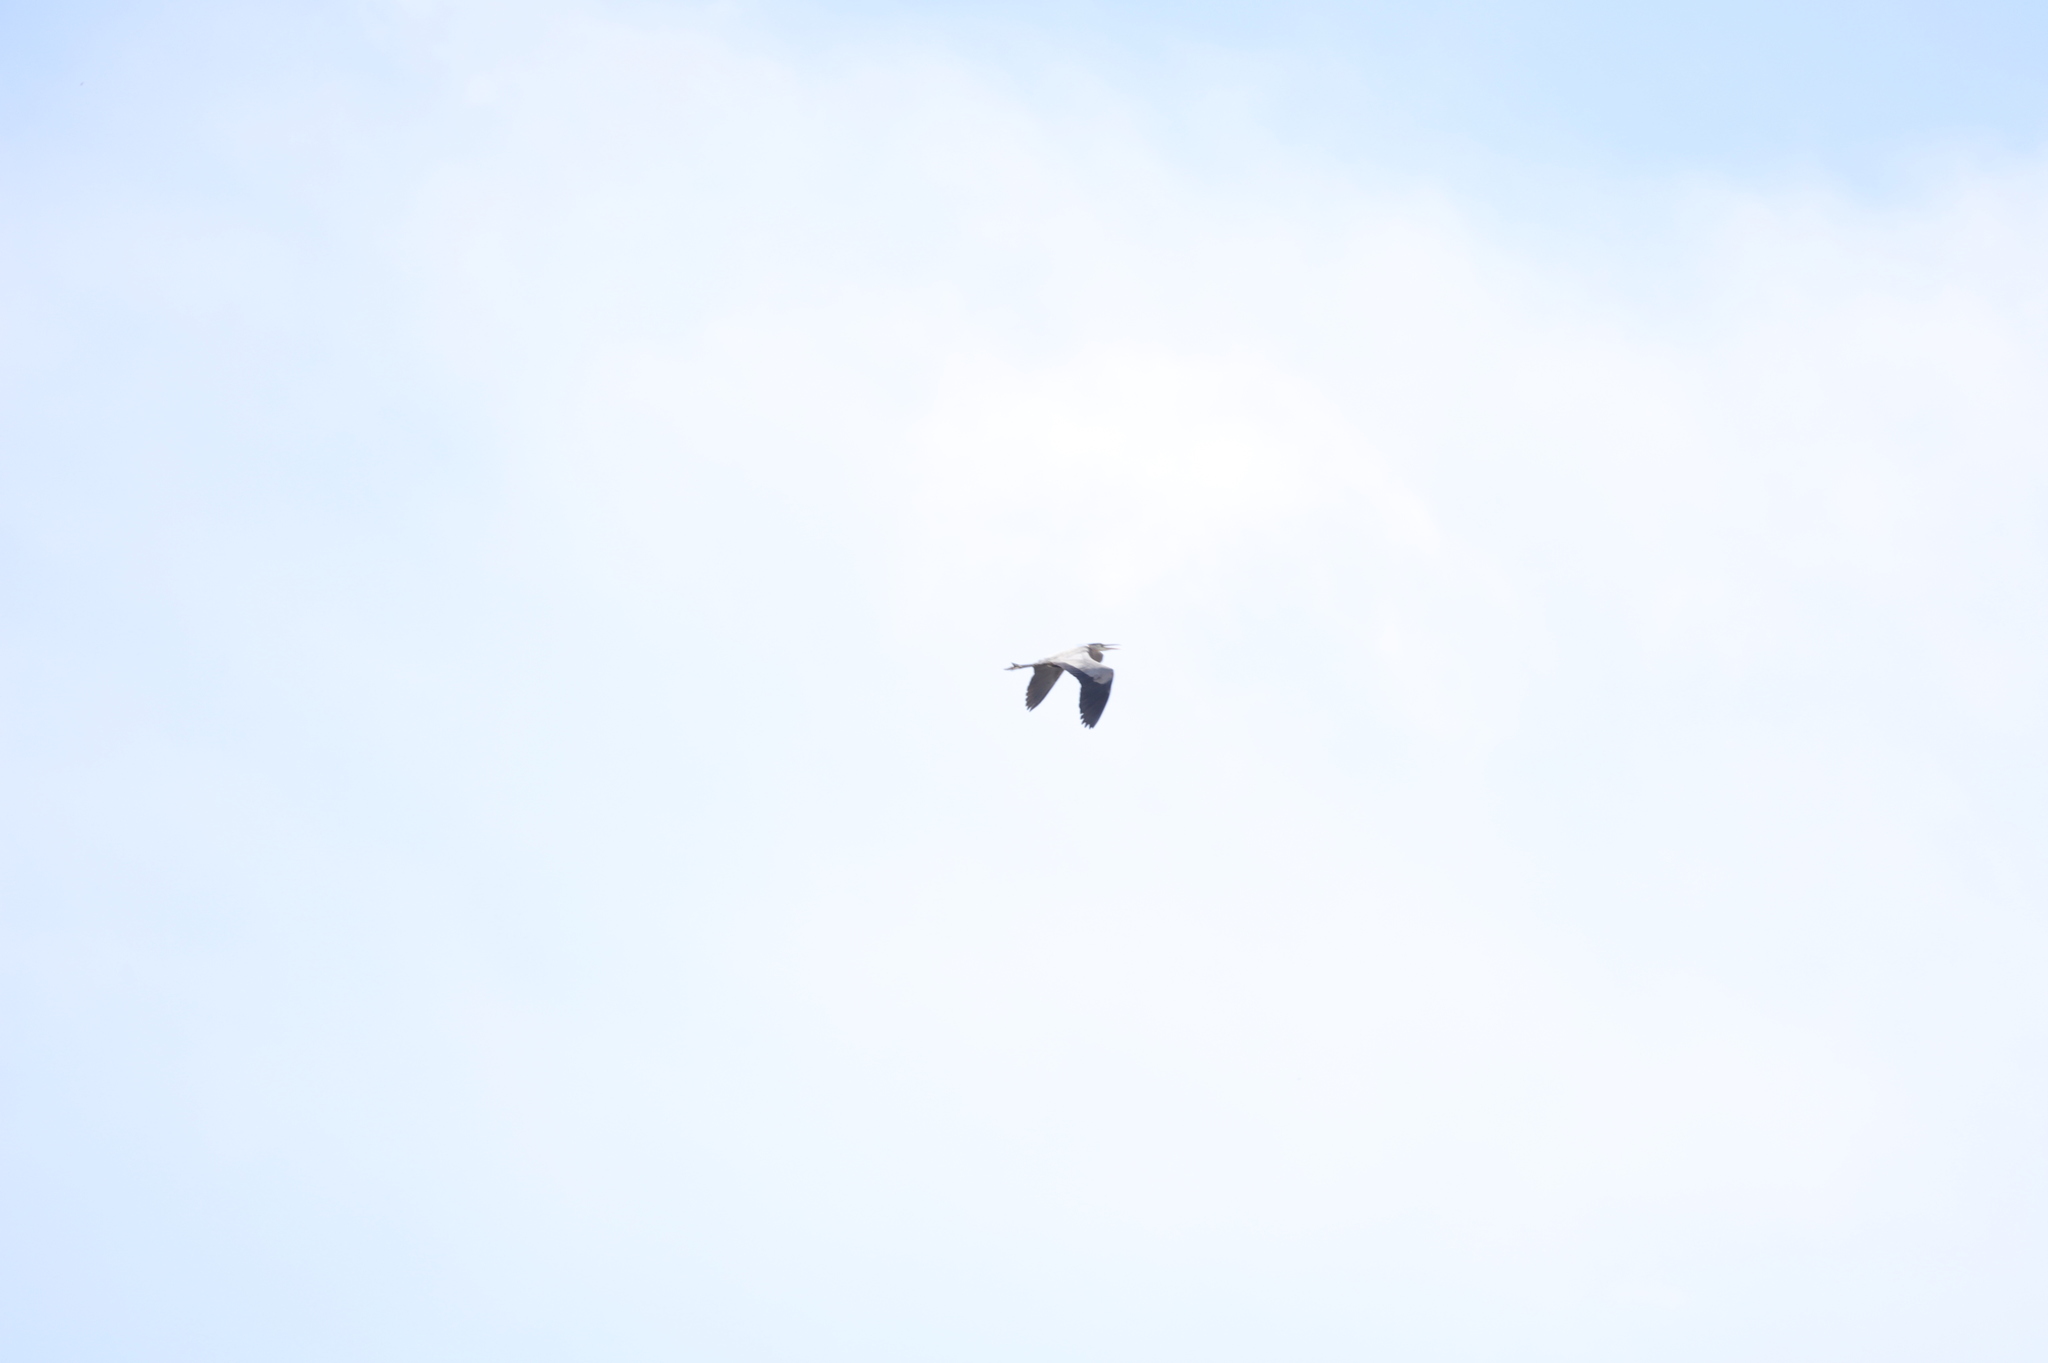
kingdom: Animalia
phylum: Chordata
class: Aves
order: Pelecaniformes
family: Ardeidae
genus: Ardea
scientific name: Ardea herodias
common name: Great blue heron
